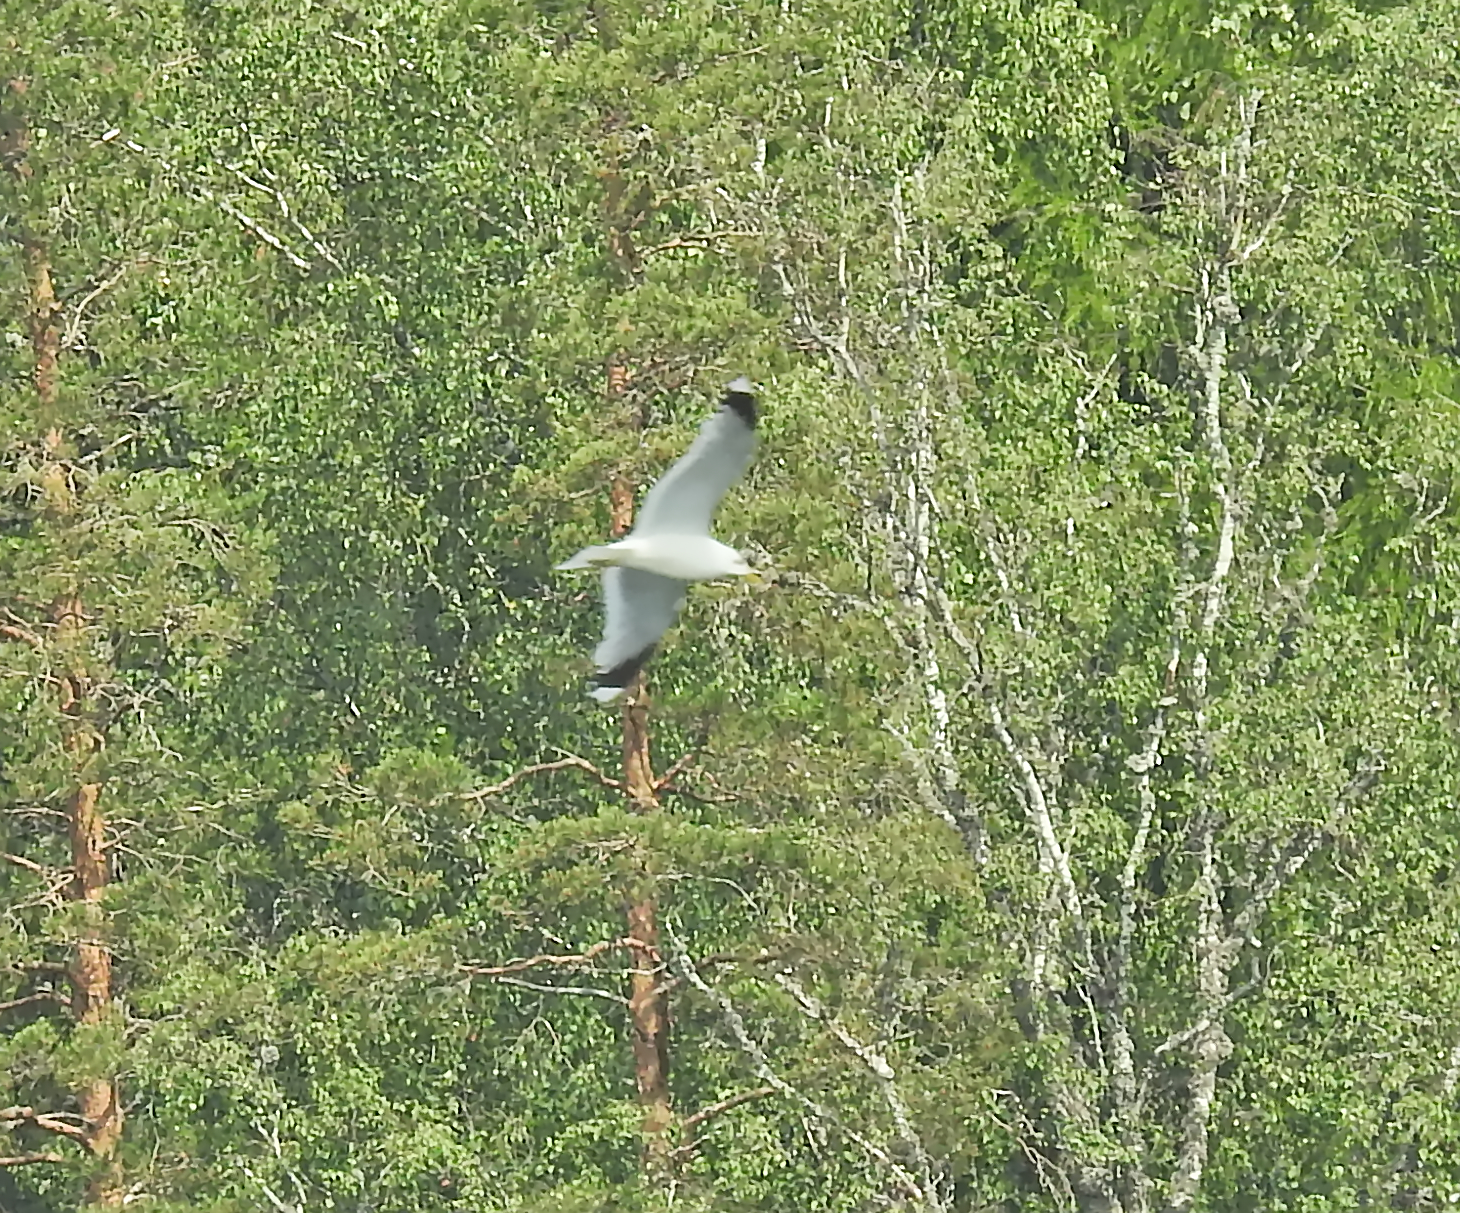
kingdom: Animalia
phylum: Chordata
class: Aves
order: Charadriiformes
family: Laridae
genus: Larus
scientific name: Larus canus
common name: Mew gull
